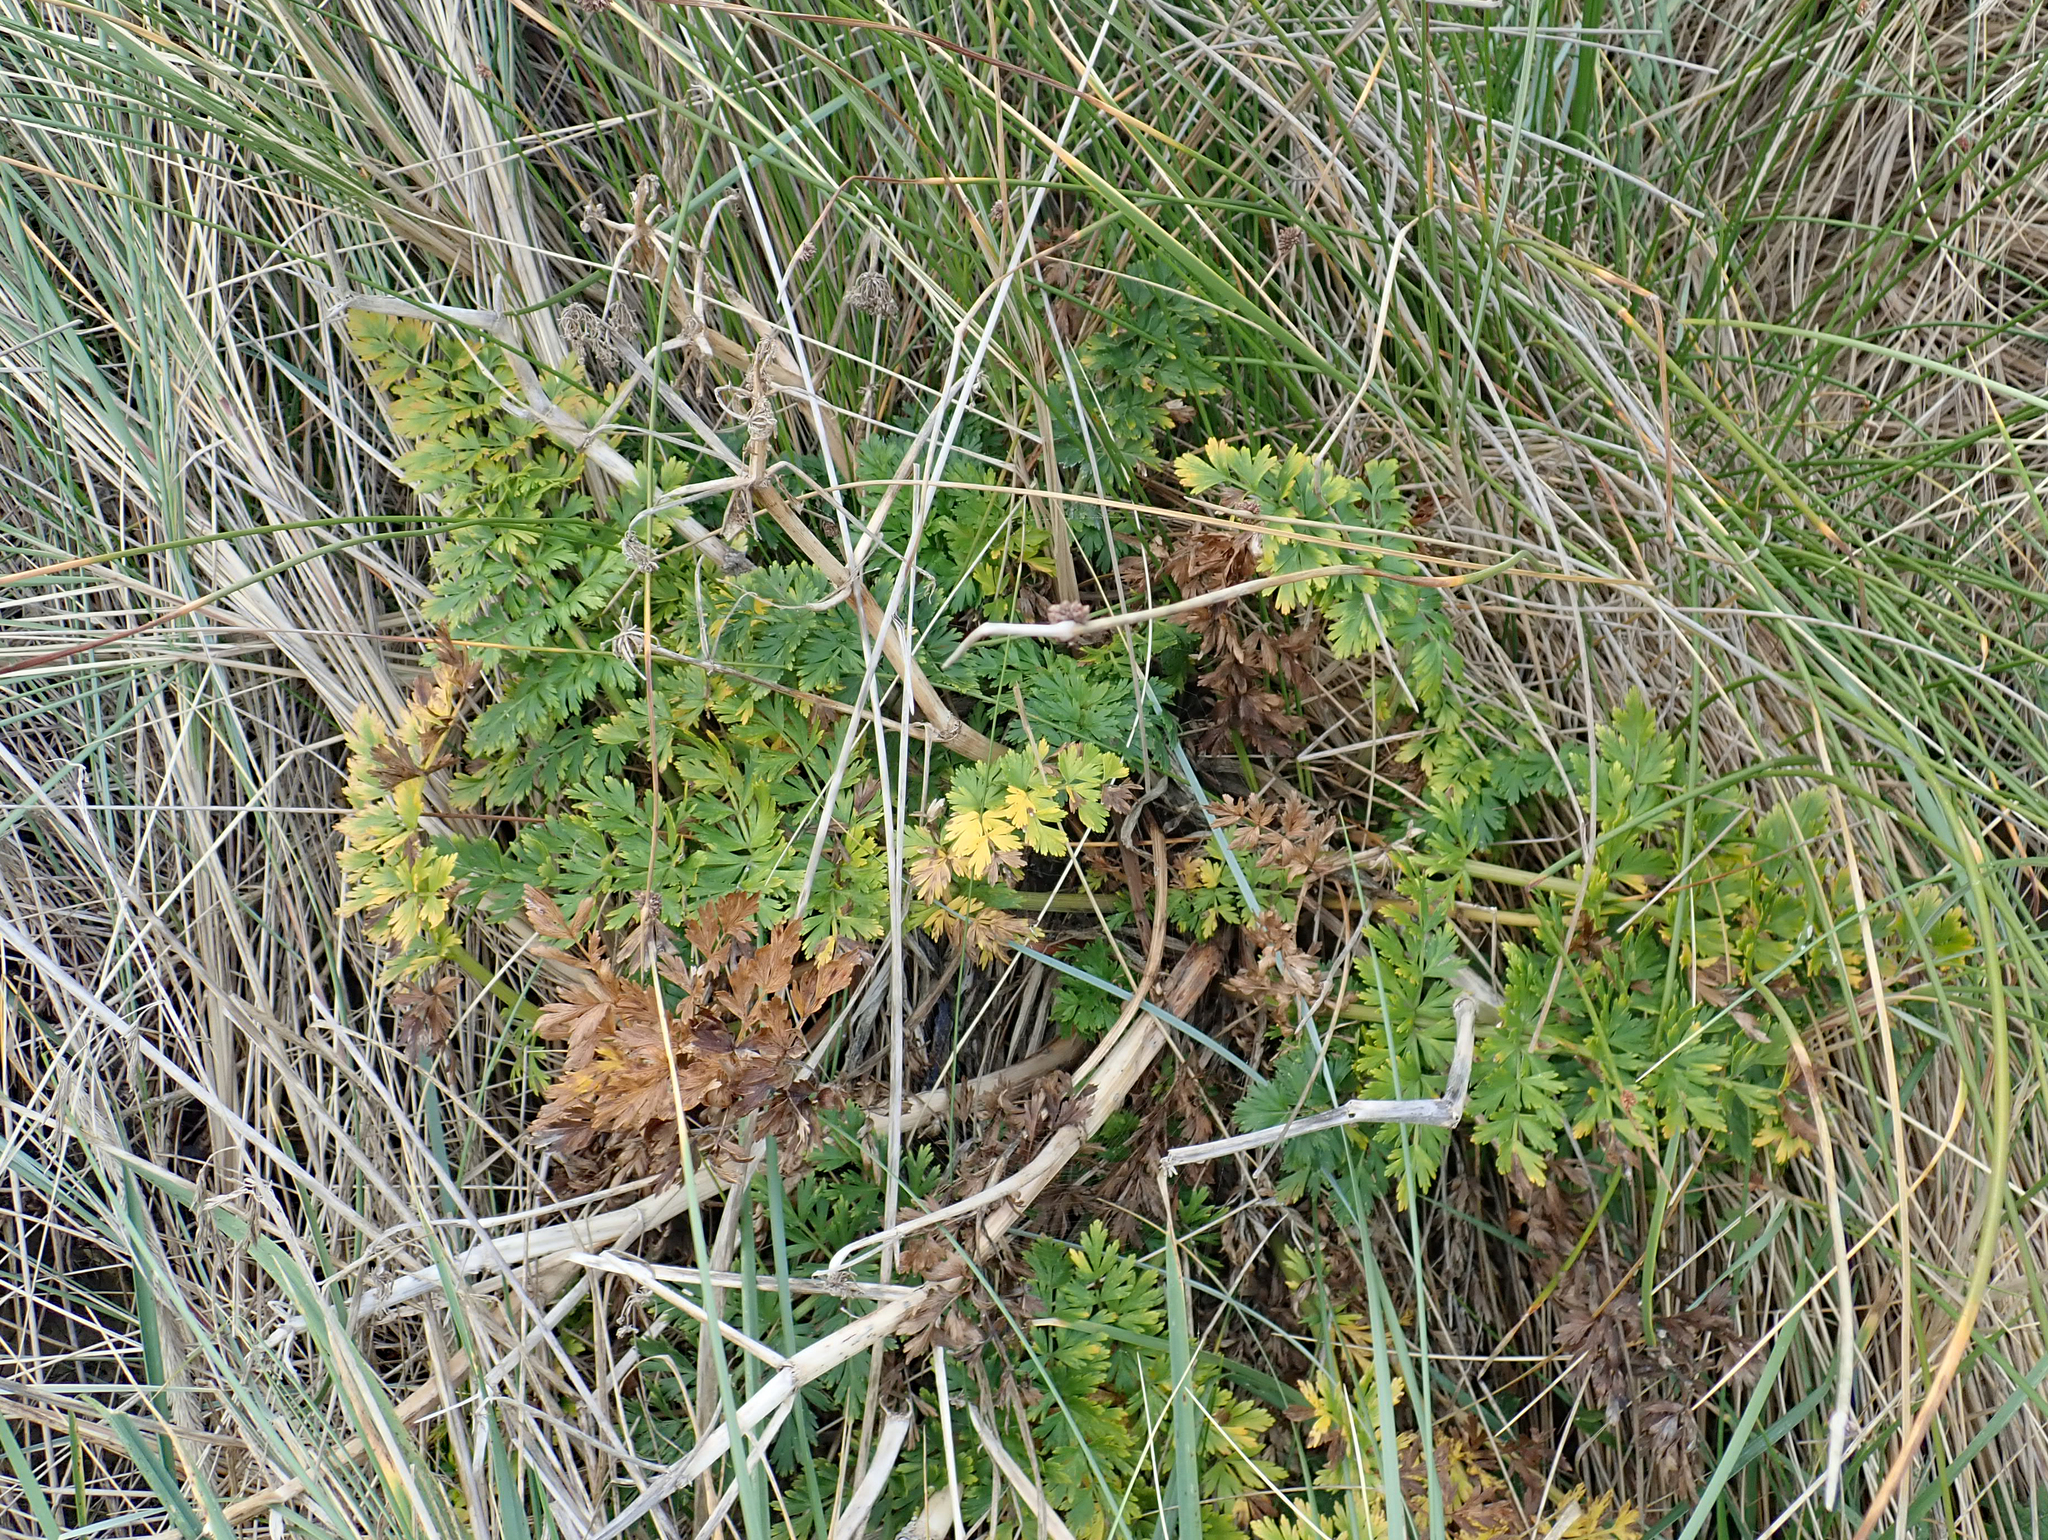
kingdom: Plantae
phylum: Tracheophyta
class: Magnoliopsida
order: Apiales
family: Apiaceae
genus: Anisotome
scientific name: Anisotome lyallii
